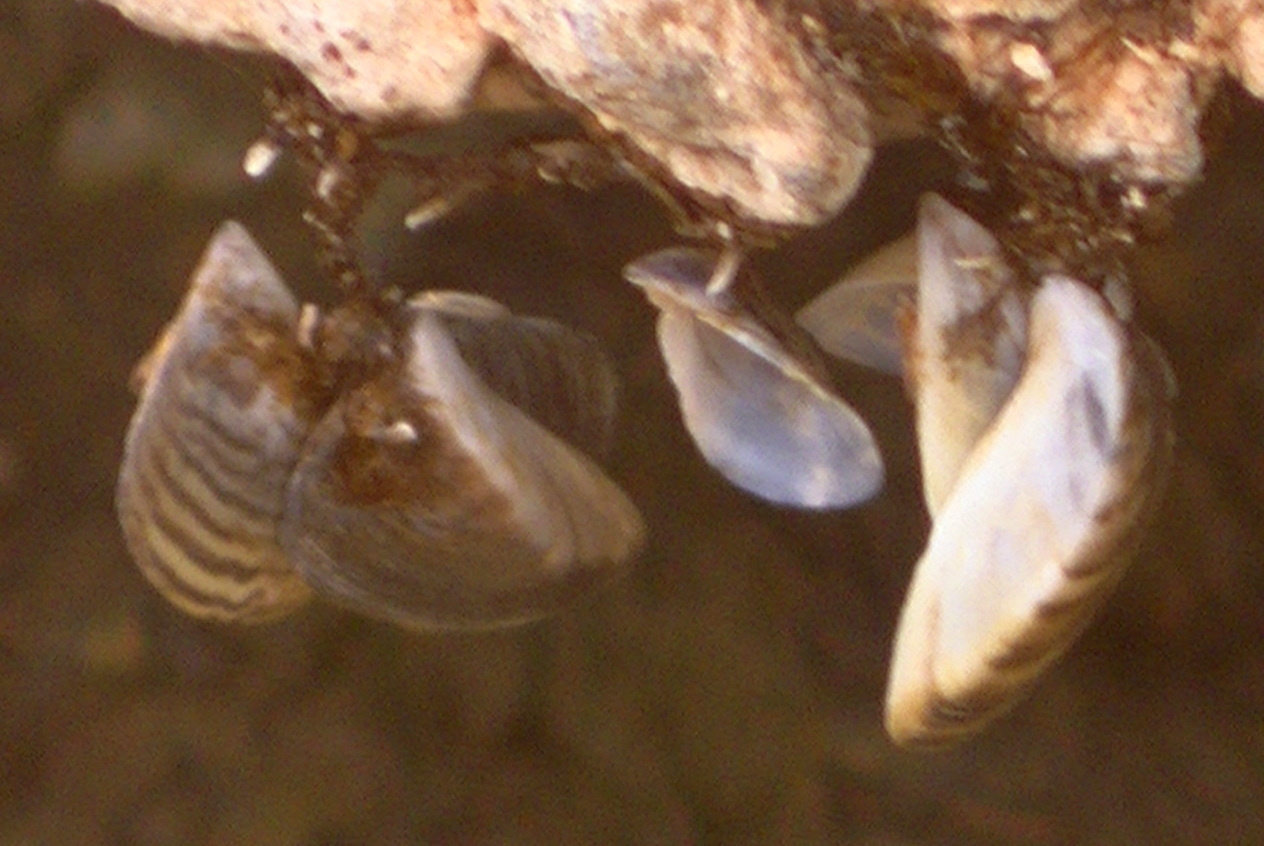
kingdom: Animalia
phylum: Mollusca
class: Bivalvia
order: Myida
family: Dreissenidae
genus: Dreissena
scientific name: Dreissena polymorpha
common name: Zebra mussel
